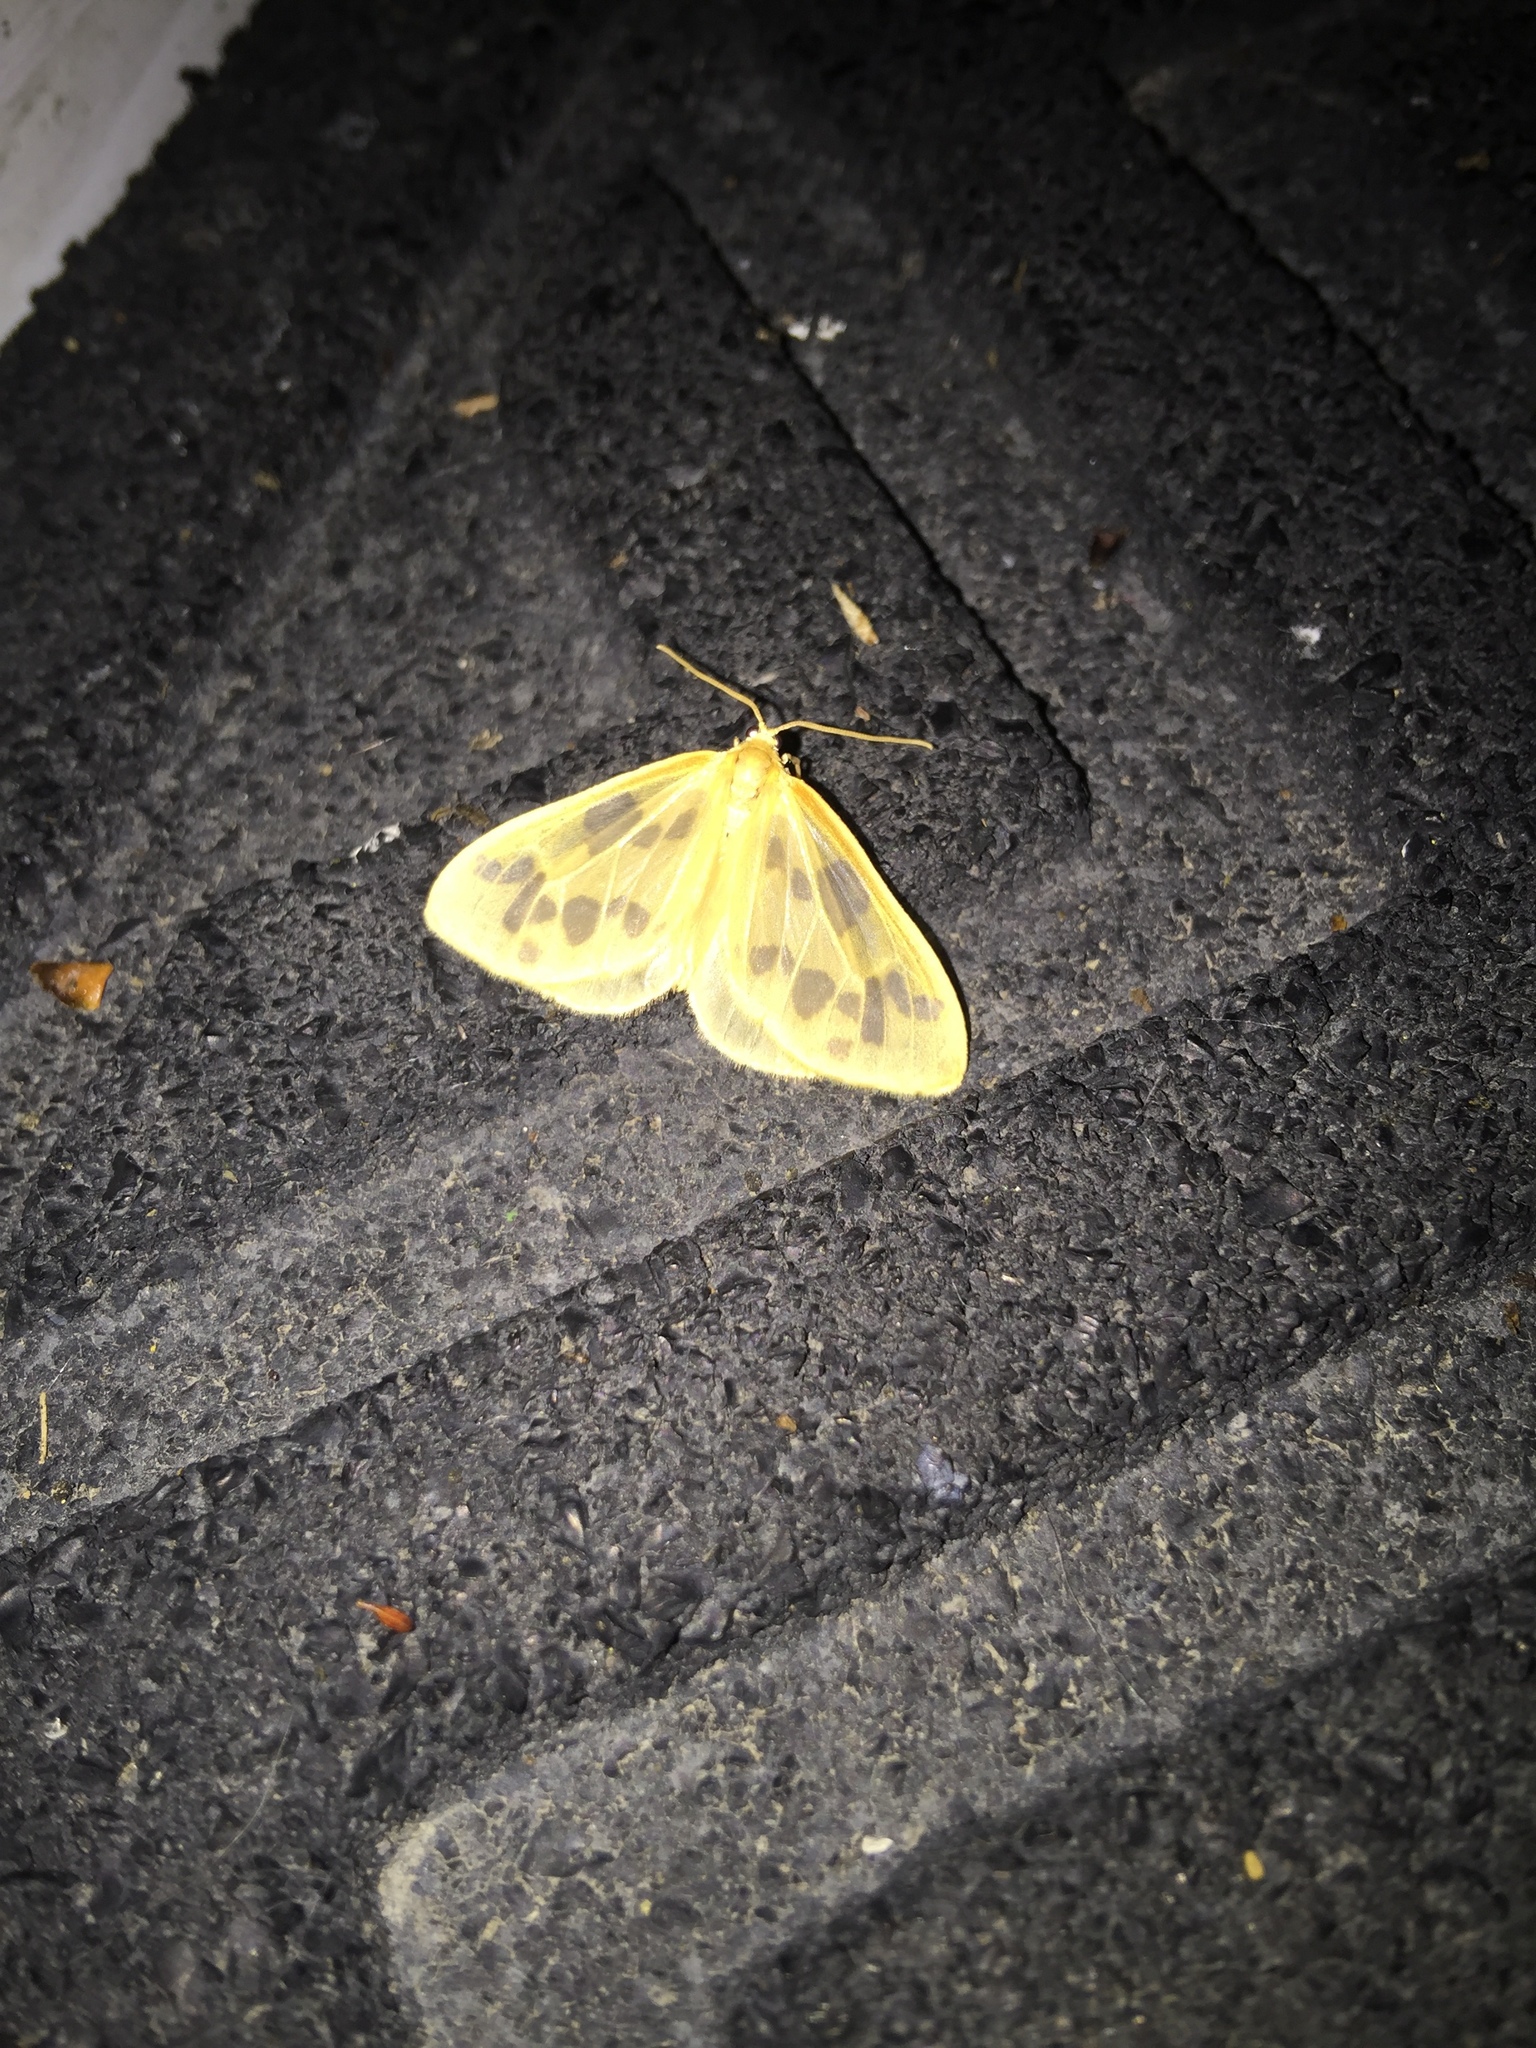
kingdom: Animalia
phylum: Arthropoda
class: Insecta
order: Lepidoptera
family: Geometridae
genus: Eubaphe
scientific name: Eubaphe mendica
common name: Beggar
